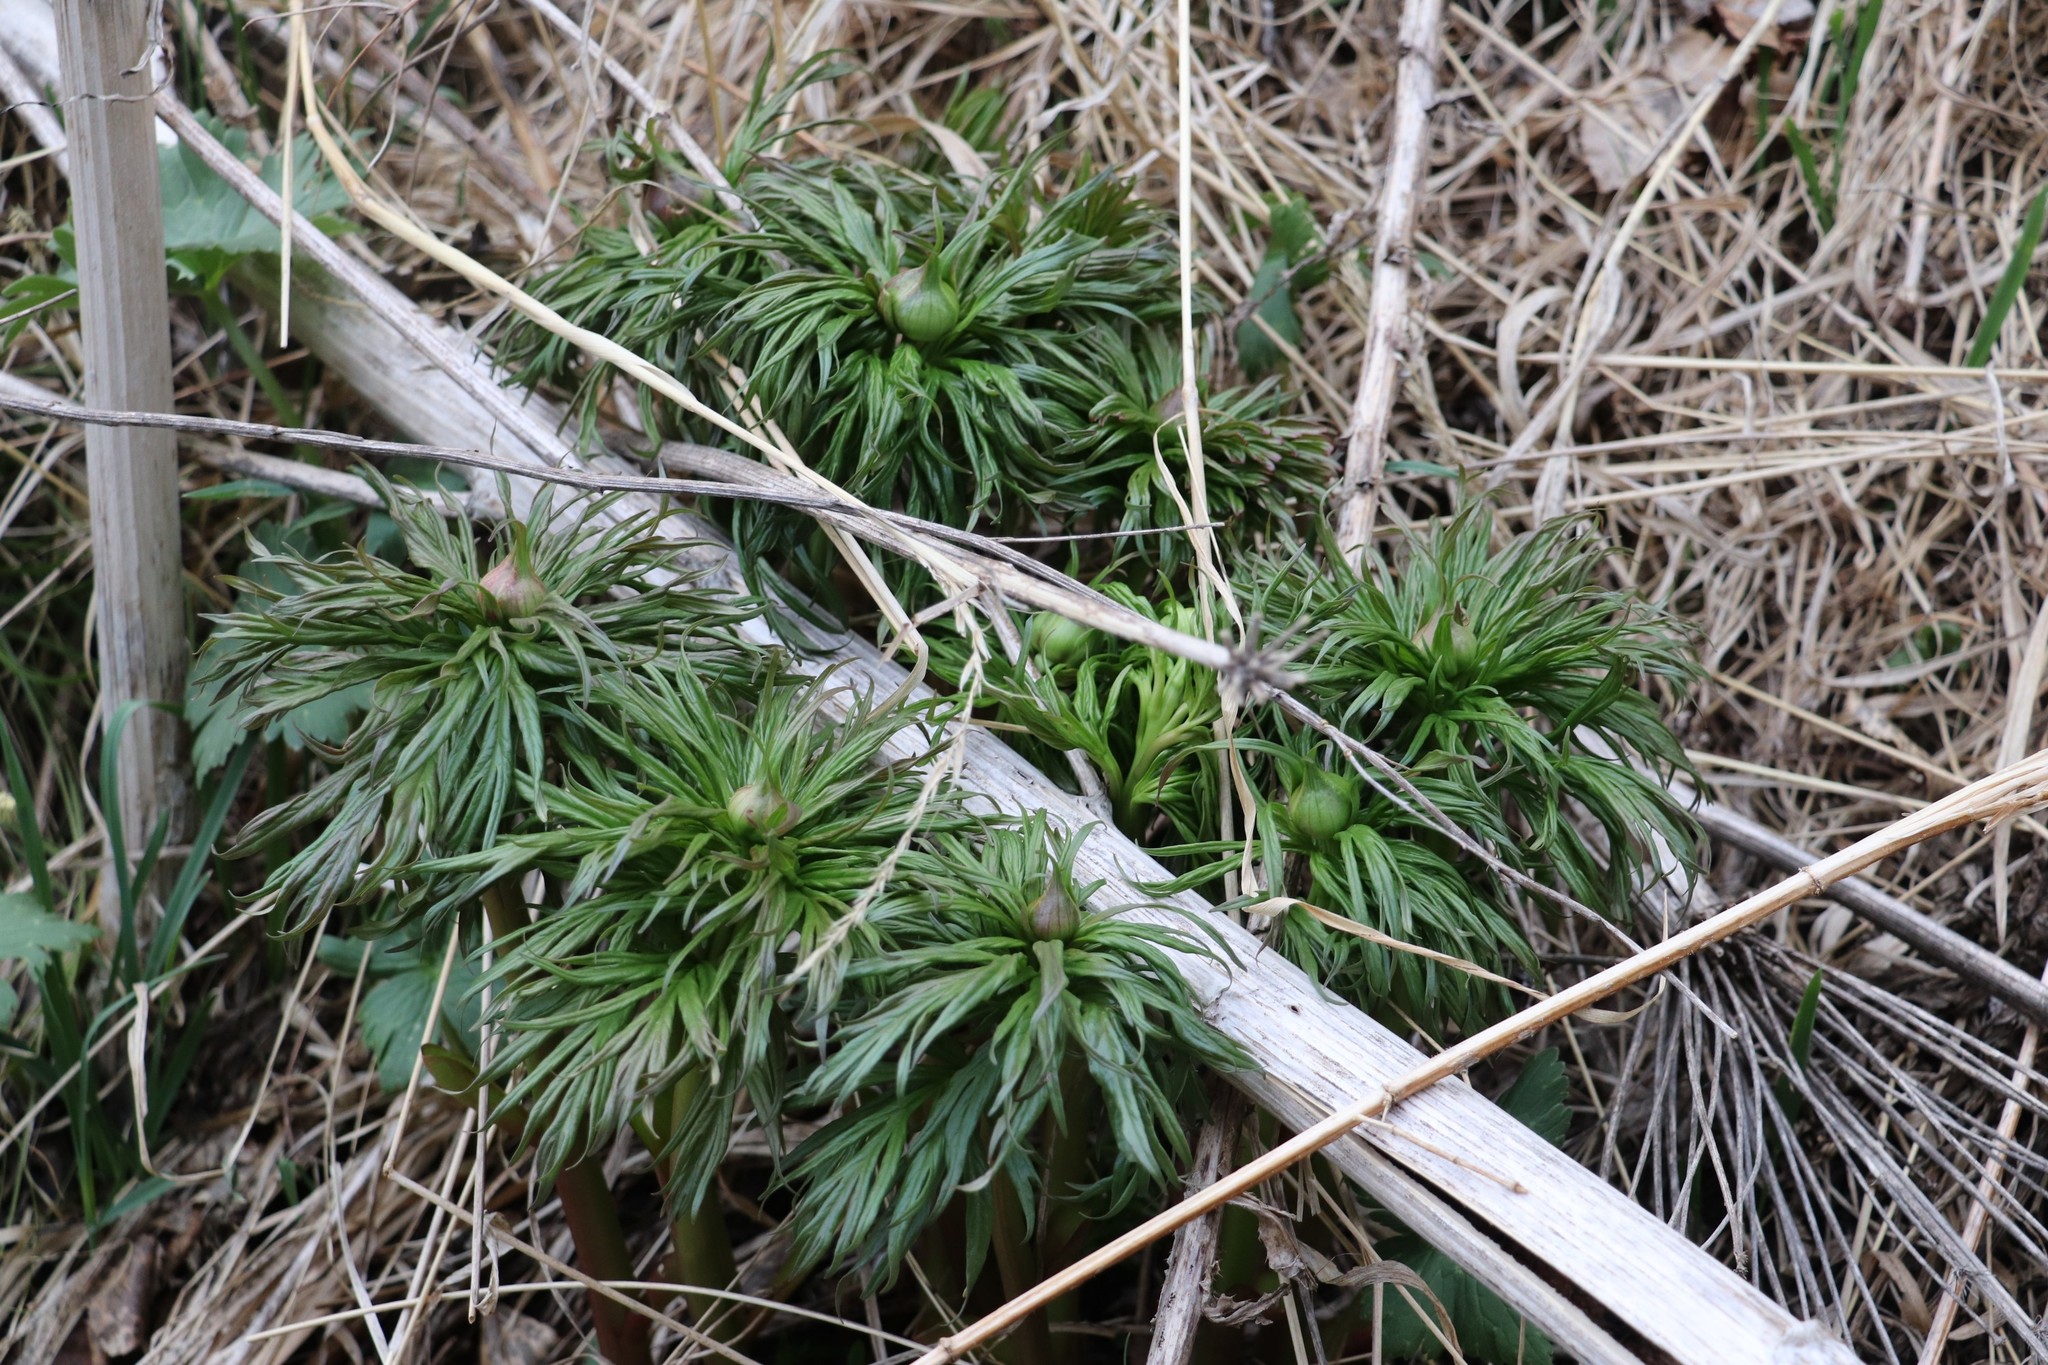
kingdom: Plantae
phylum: Tracheophyta
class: Magnoliopsida
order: Saxifragales
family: Paeoniaceae
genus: Paeonia
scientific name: Paeonia anomala
